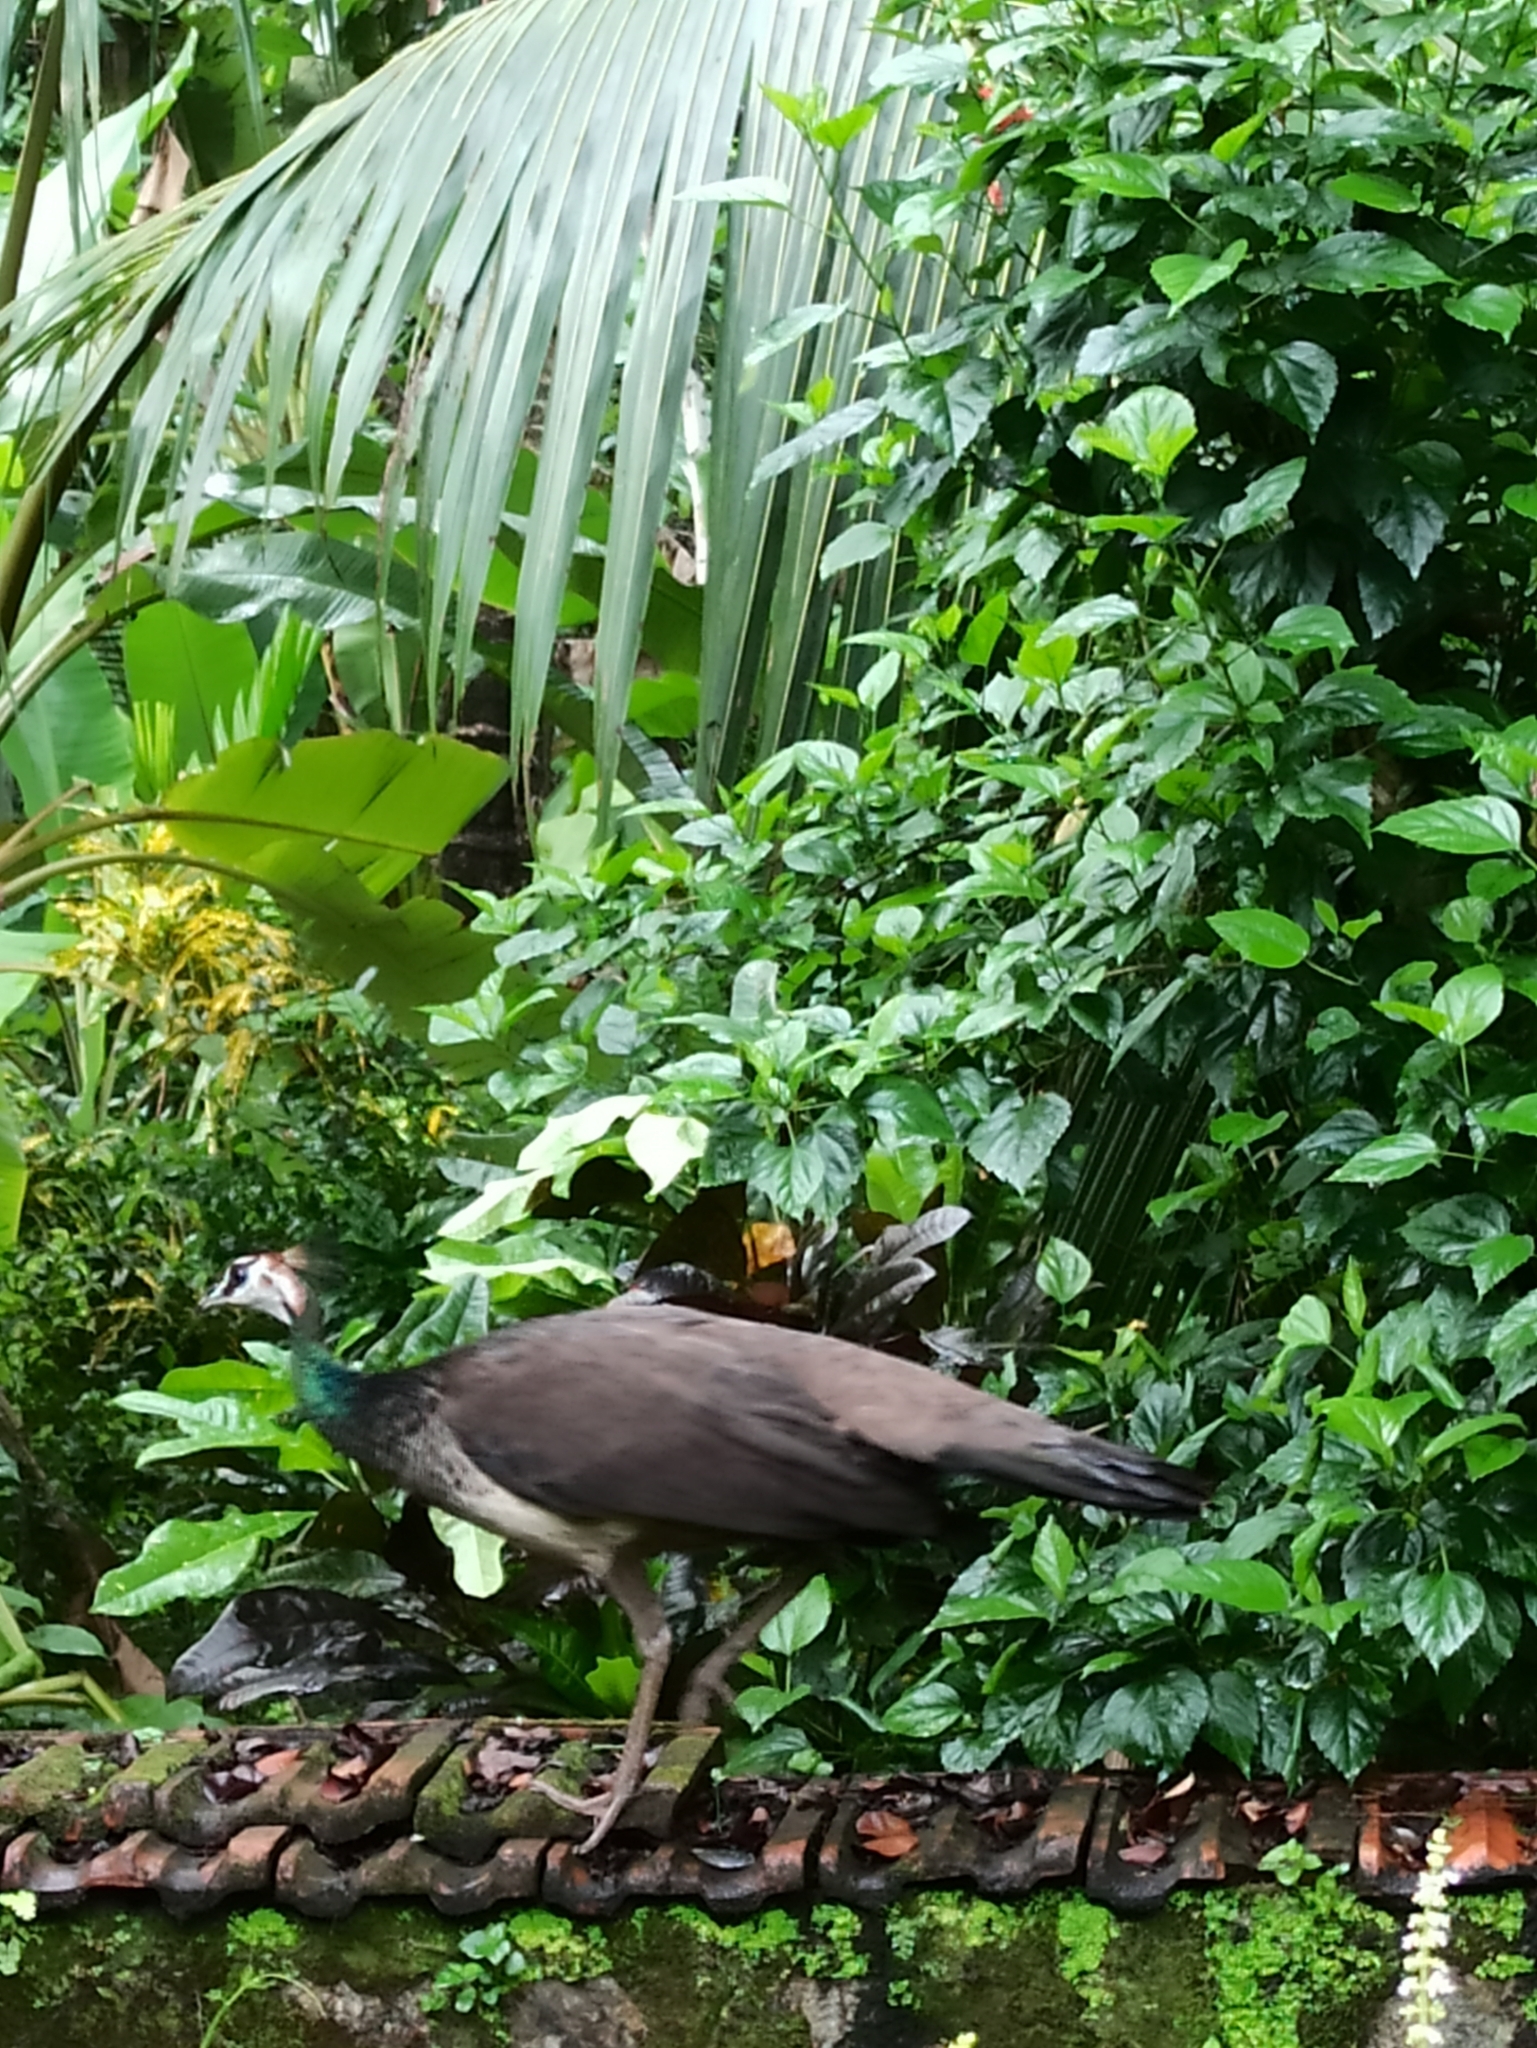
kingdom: Animalia
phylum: Chordata
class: Aves
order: Galliformes
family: Phasianidae
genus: Pavo
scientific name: Pavo cristatus
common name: Indian peafowl
